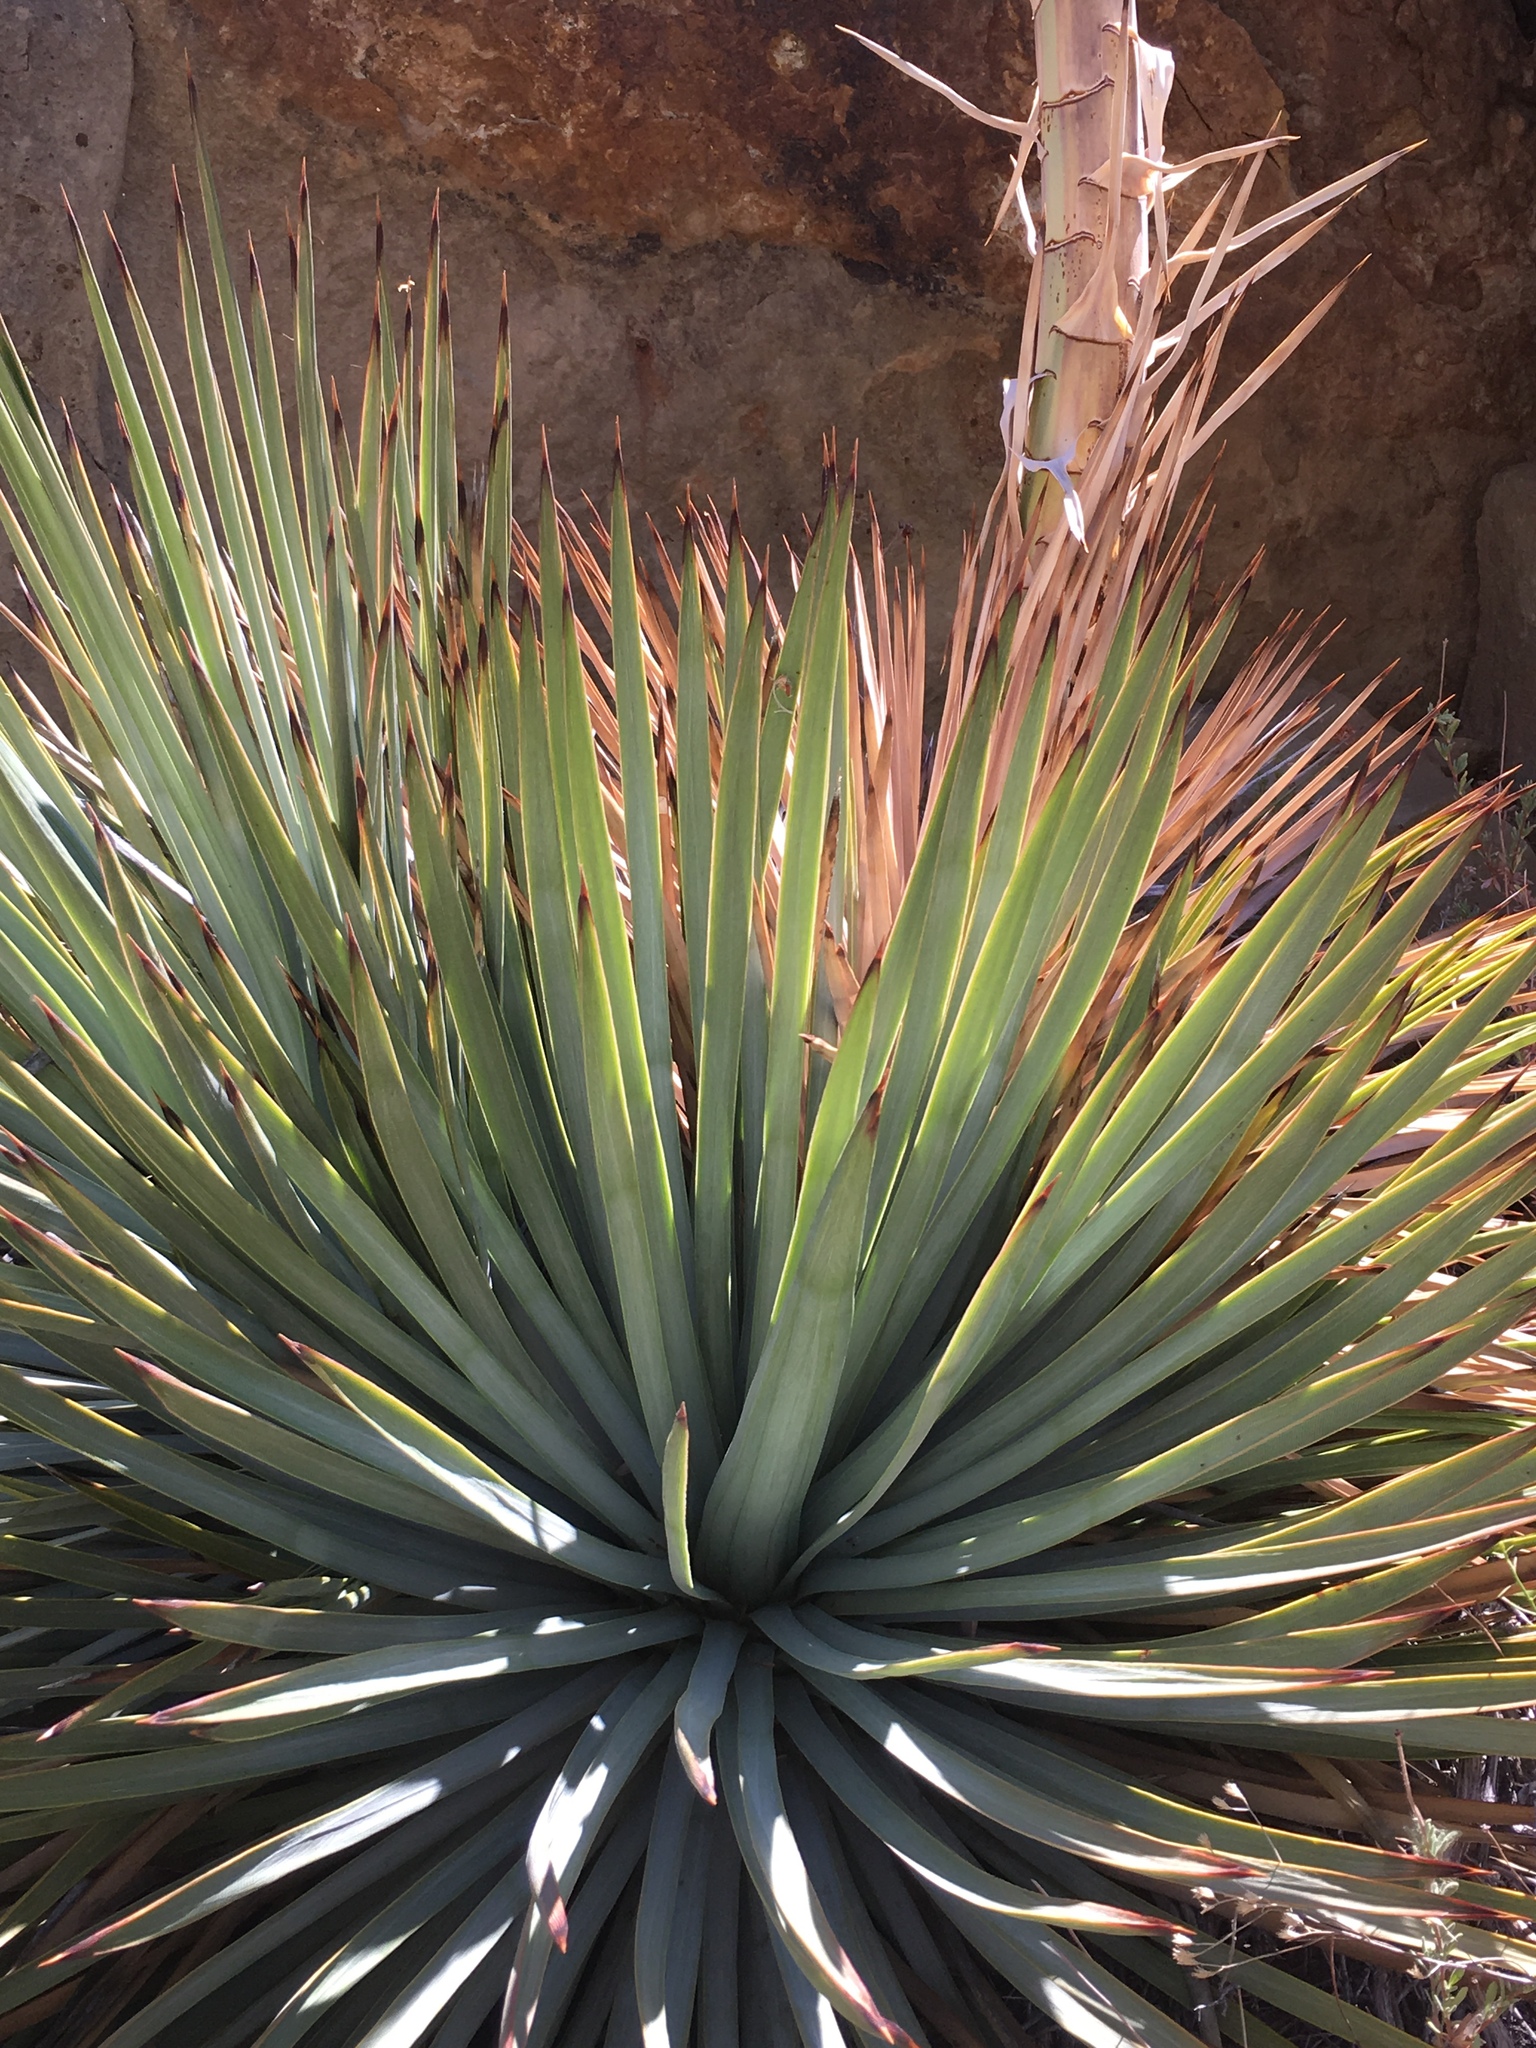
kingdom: Plantae
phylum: Tracheophyta
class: Liliopsida
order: Asparagales
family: Asparagaceae
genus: Hesperoyucca
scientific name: Hesperoyucca whipplei
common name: Our lord's-candle
